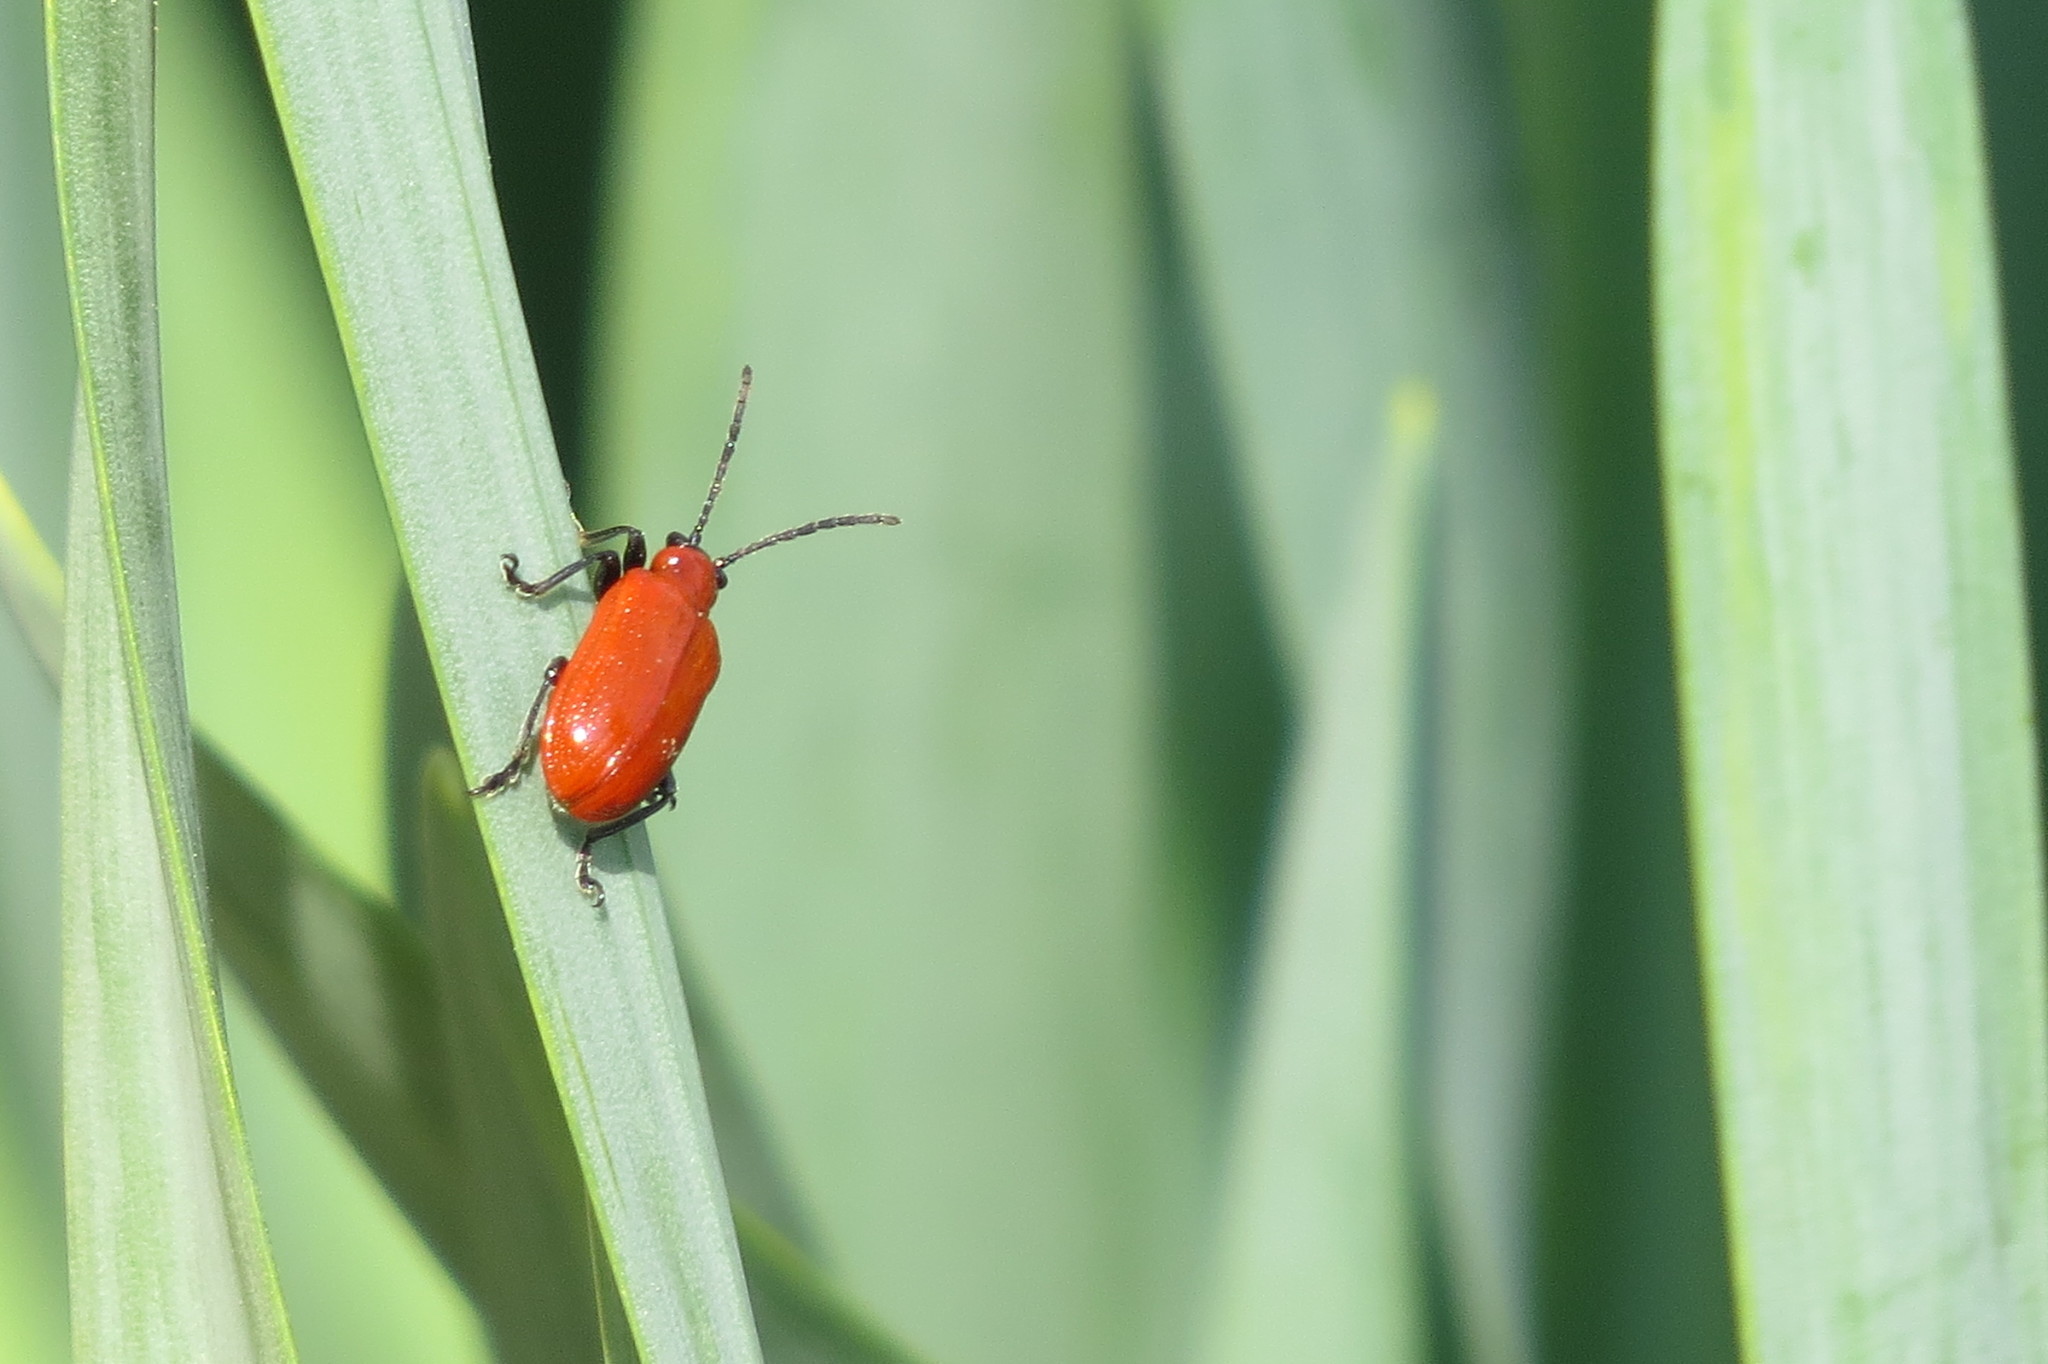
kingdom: Animalia
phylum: Arthropoda
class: Insecta
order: Coleoptera
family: Chrysomelidae
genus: Lilioceris
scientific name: Lilioceris lilii
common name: Lily beetle
